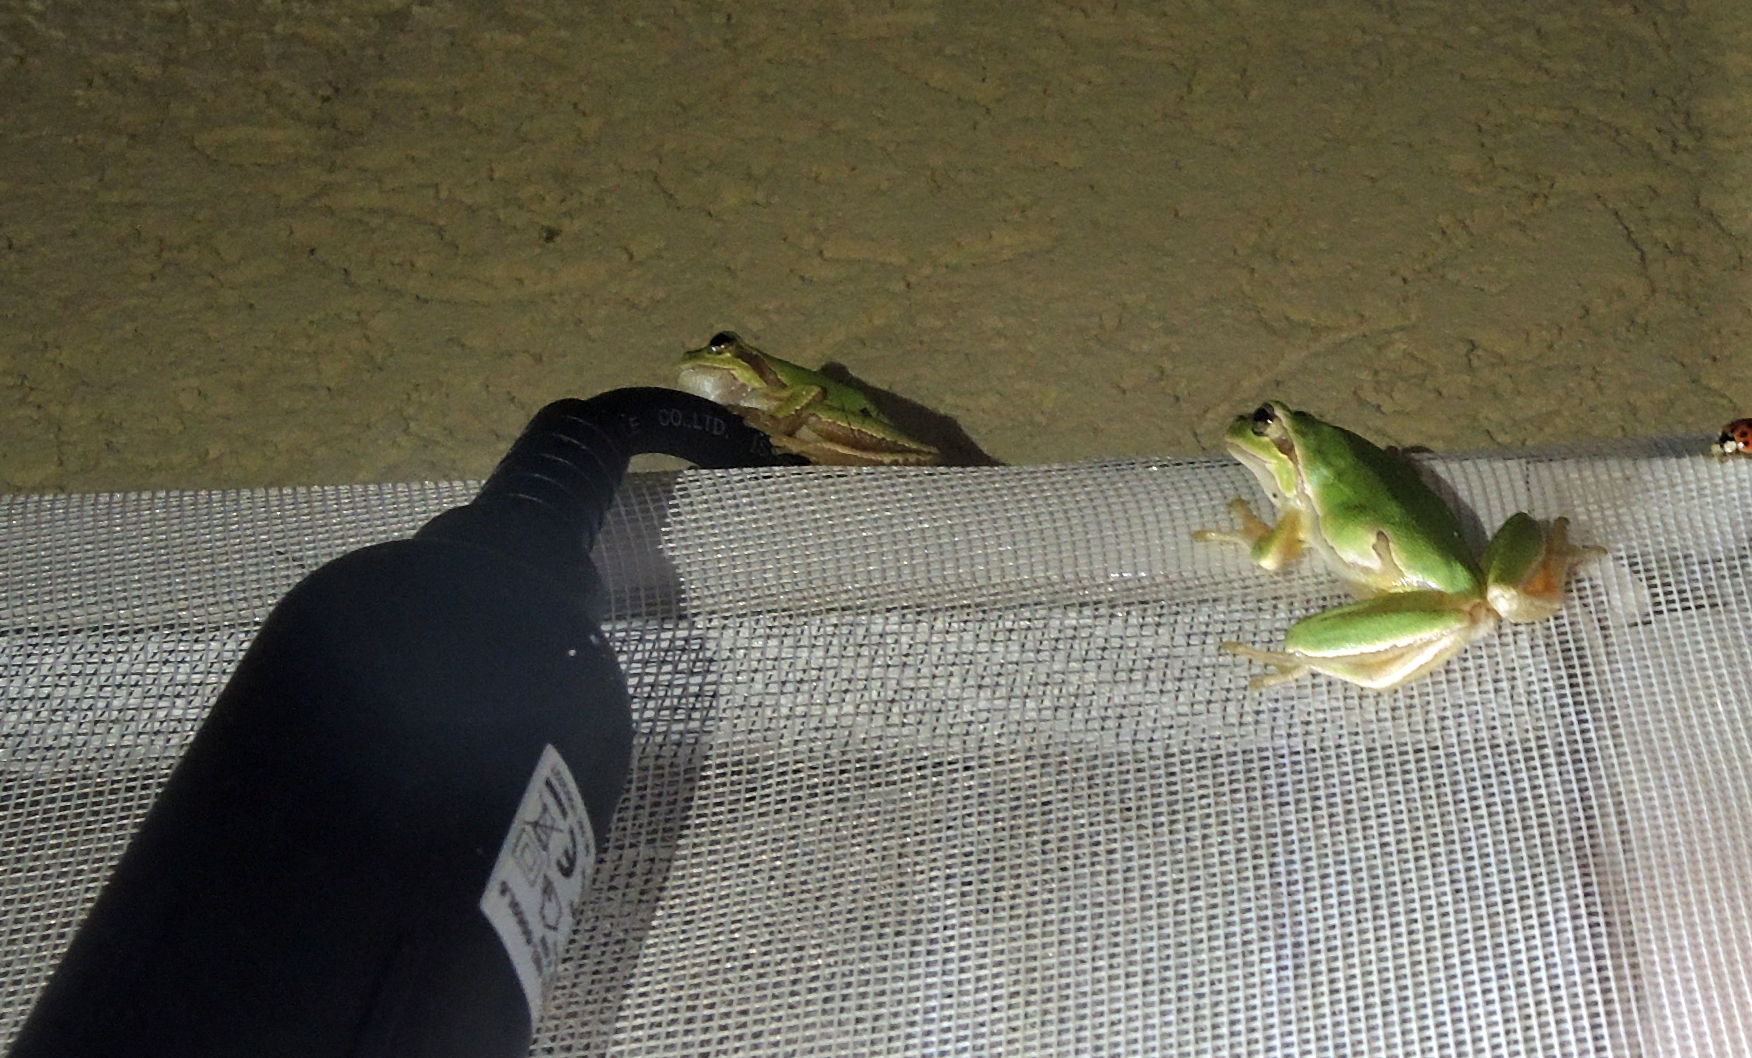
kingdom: Animalia
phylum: Chordata
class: Amphibia
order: Anura
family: Hylidae
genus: Hyla
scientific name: Hyla orientalis
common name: Caucasian treefrog
